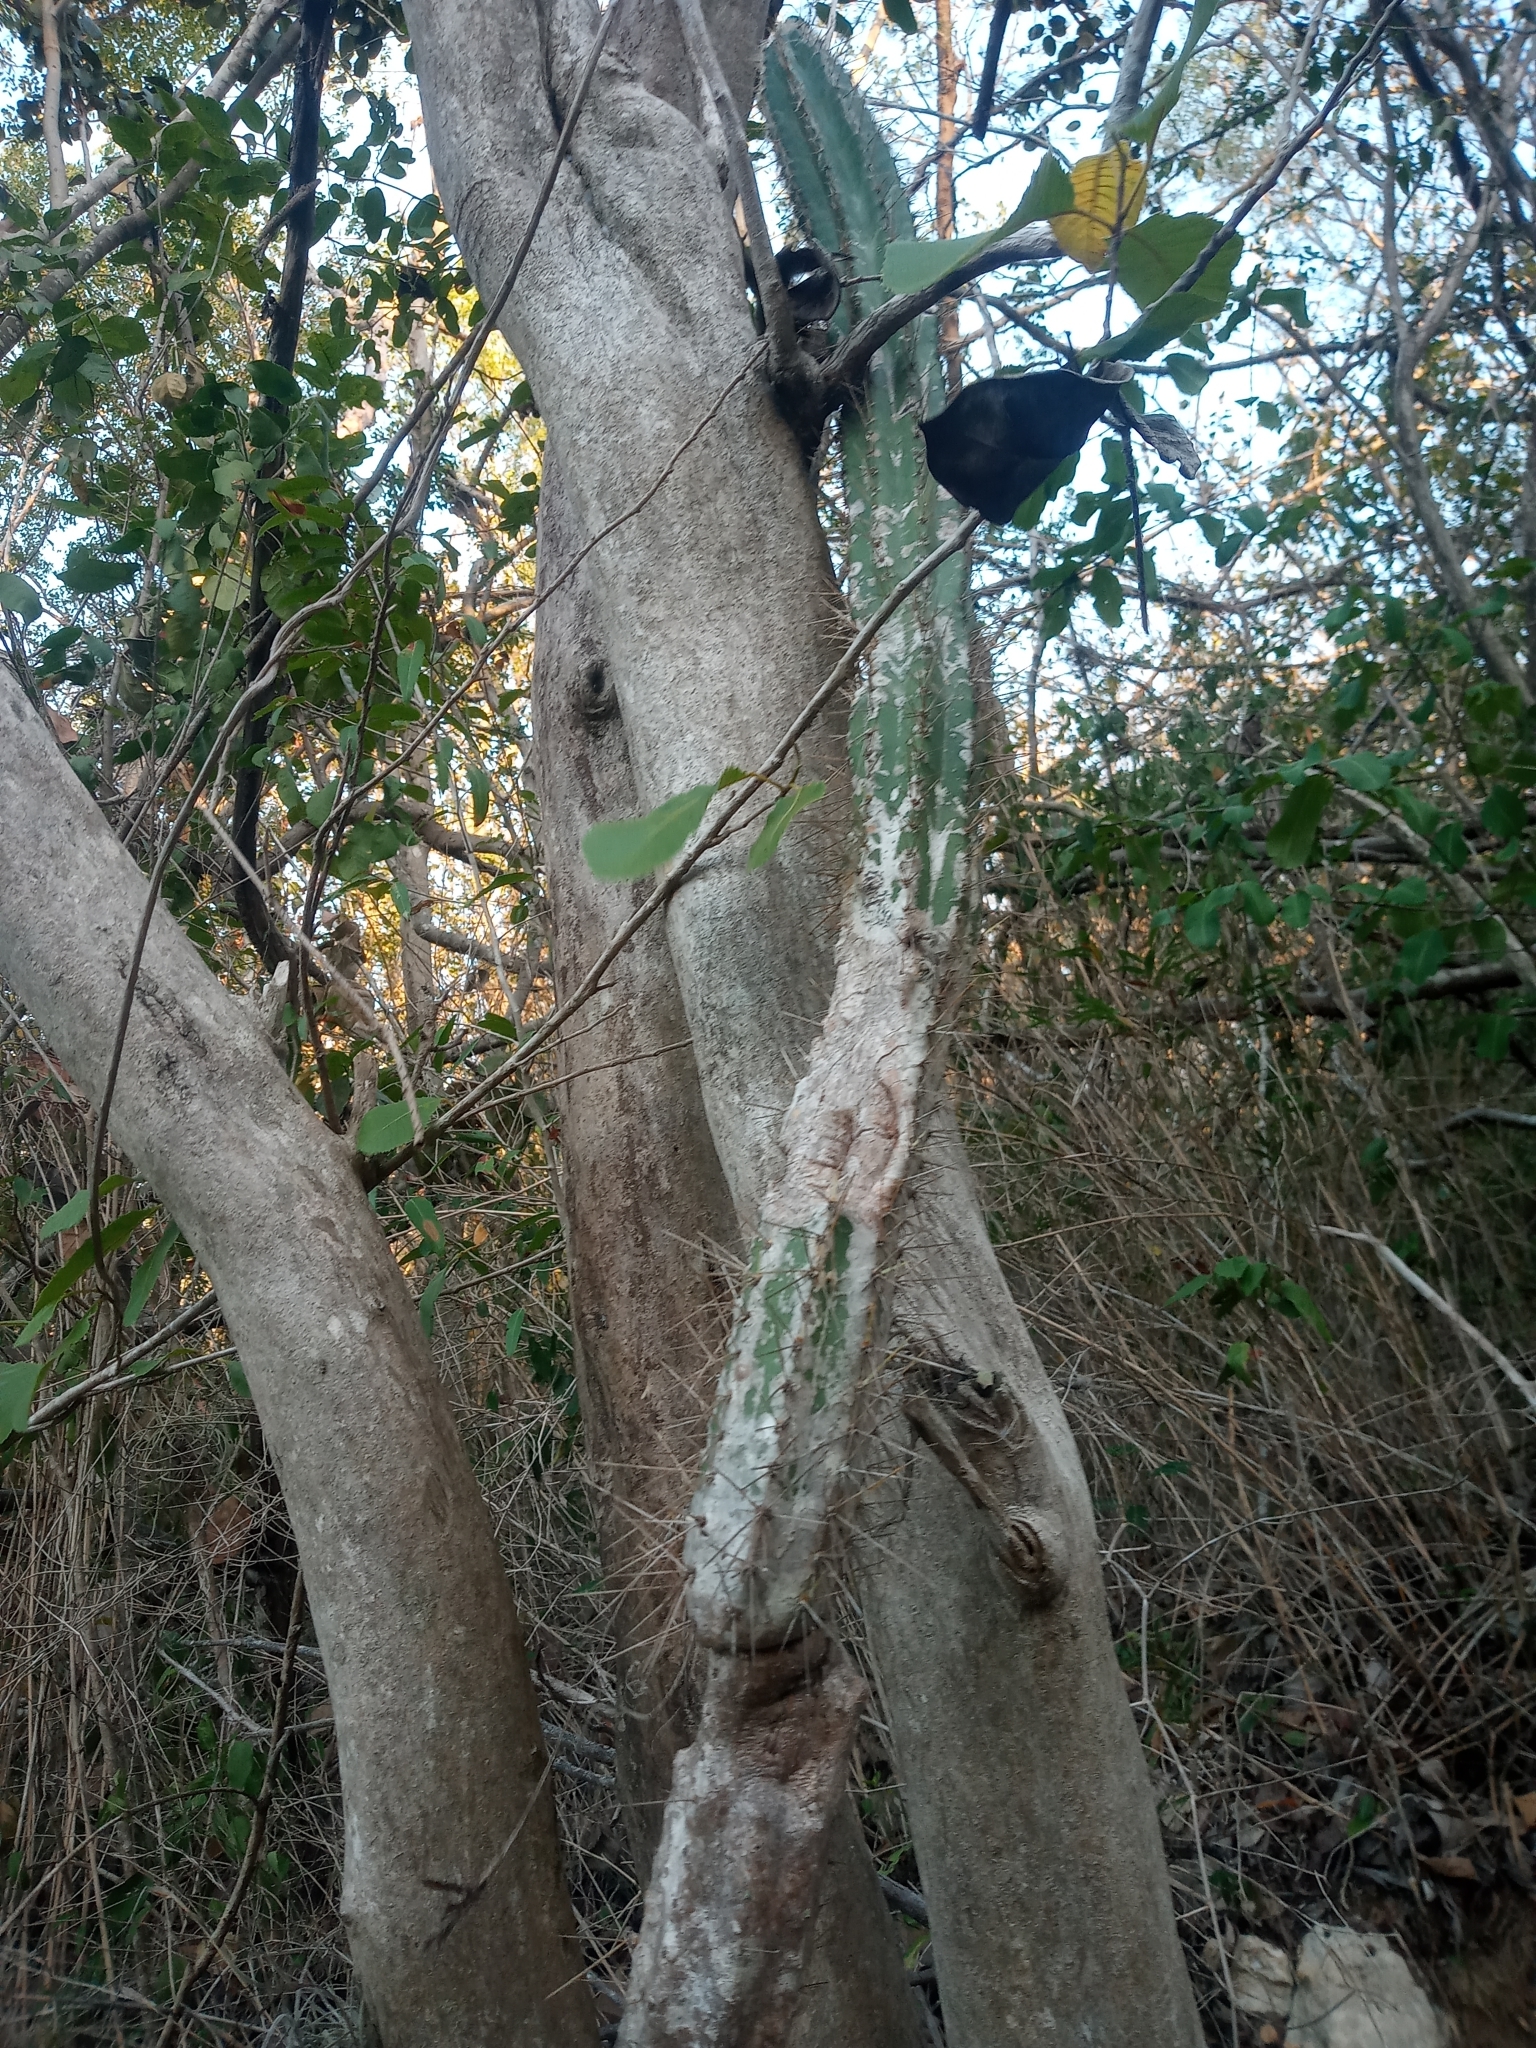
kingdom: Plantae
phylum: Tracheophyta
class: Magnoliopsida
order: Caryophyllales
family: Cactaceae
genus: Pilosocereus
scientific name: Pilosocereus armatus
